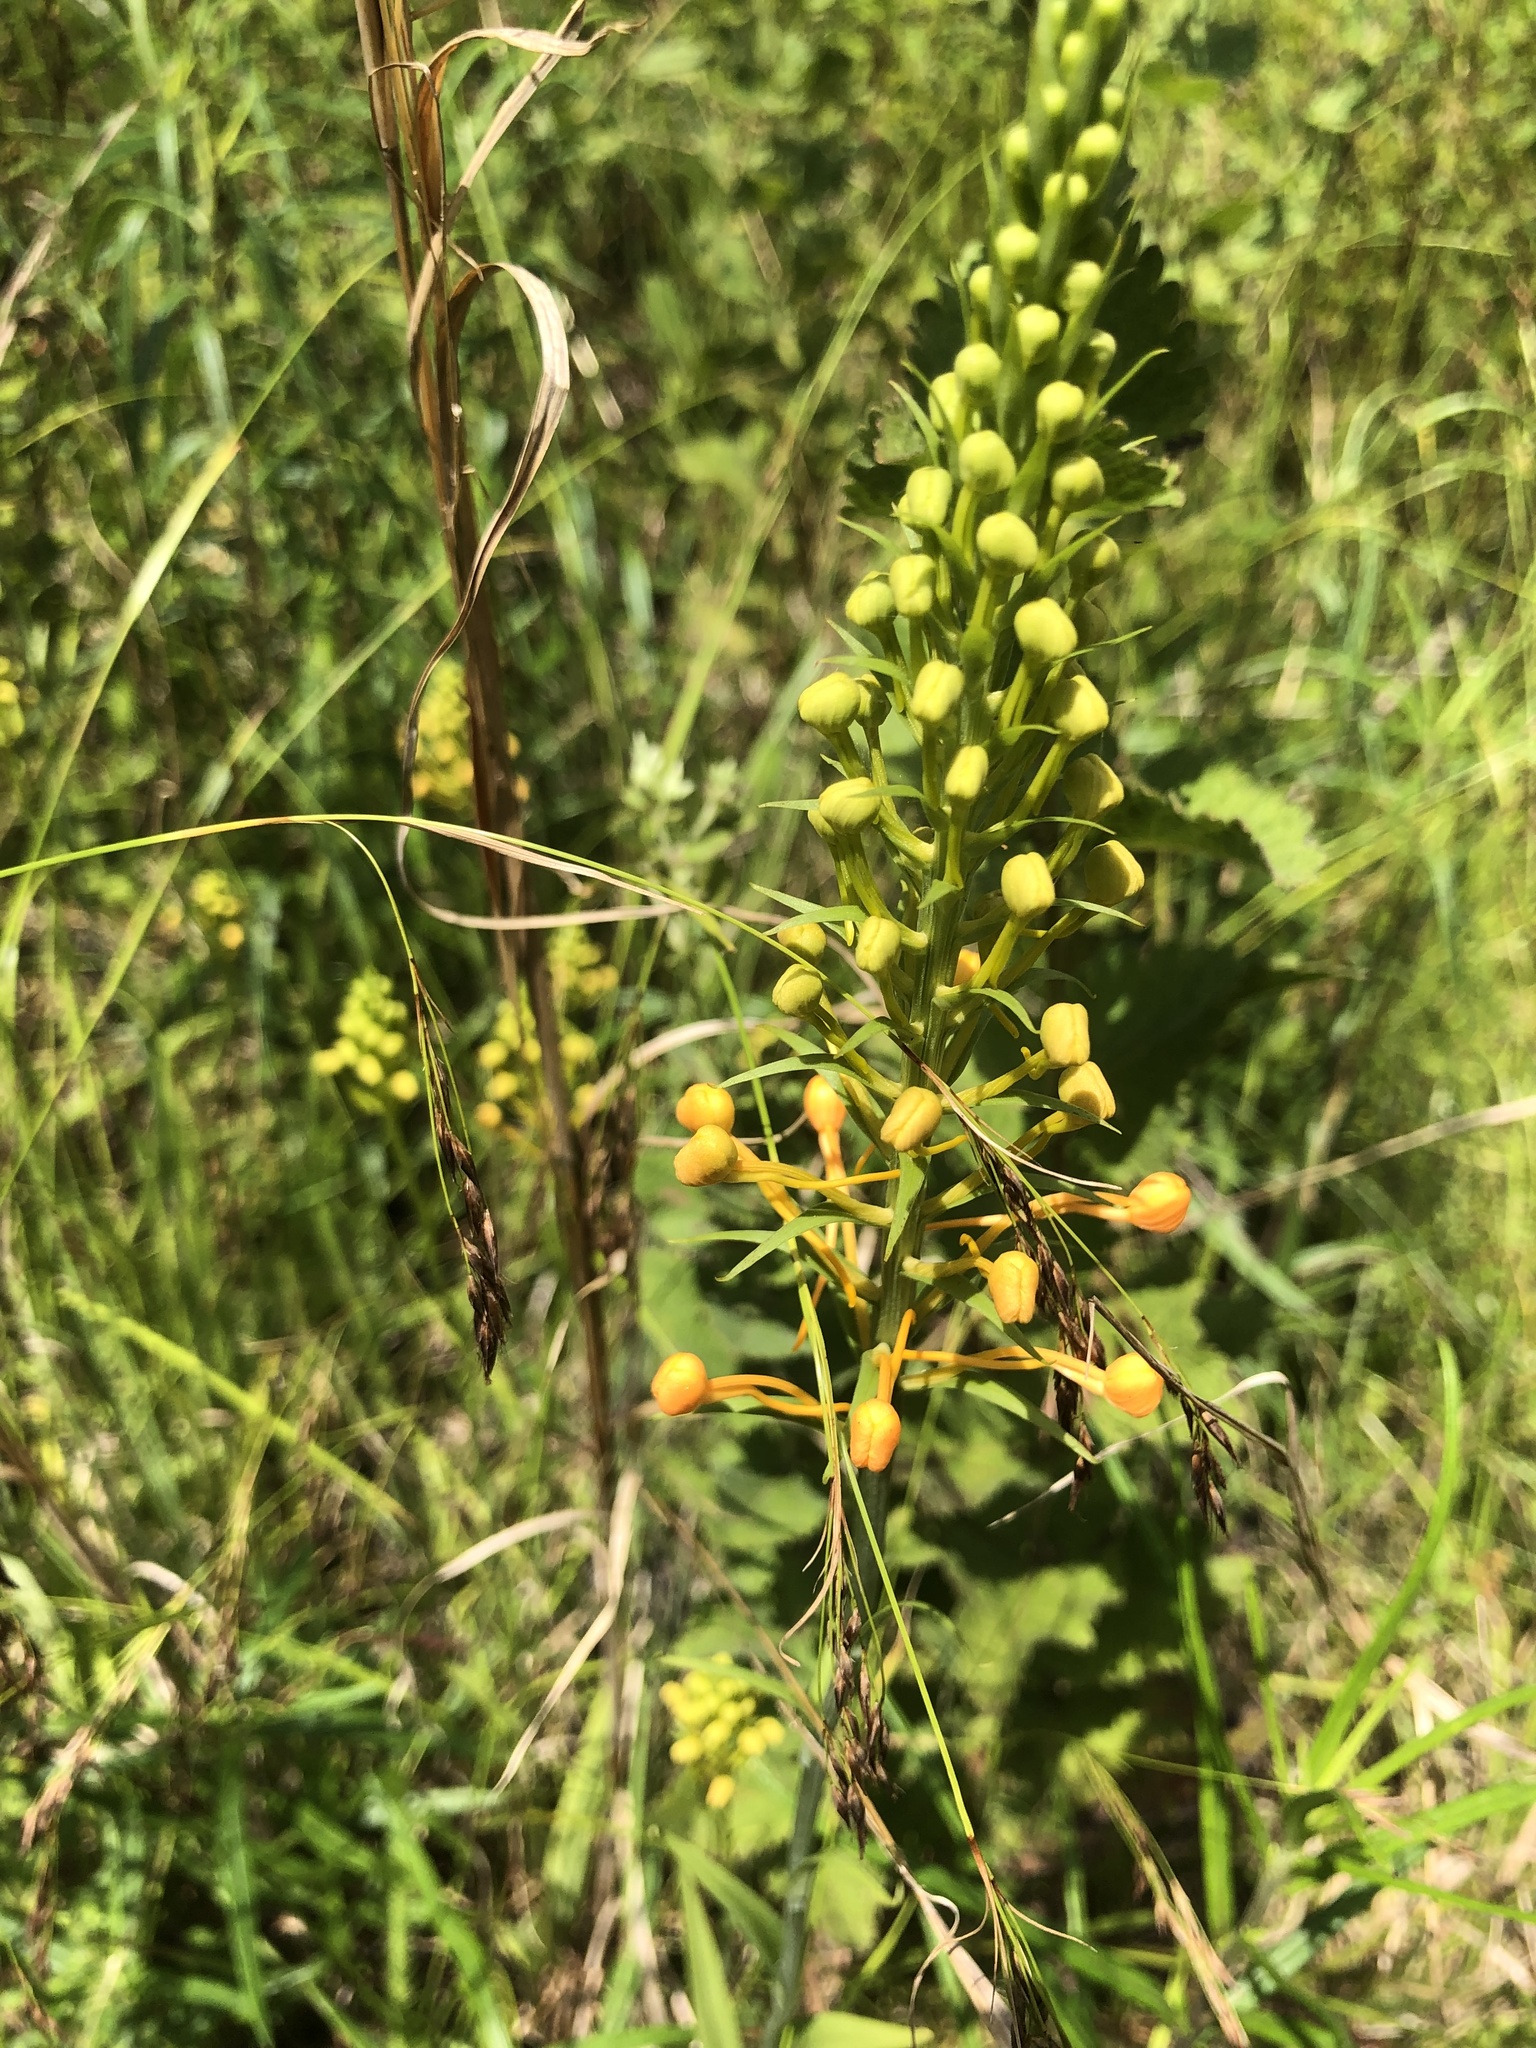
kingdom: Plantae
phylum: Tracheophyta
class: Liliopsida
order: Asparagales
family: Orchidaceae
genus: Platanthera
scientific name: Platanthera ciliaris
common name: Yellow fringed orchid
